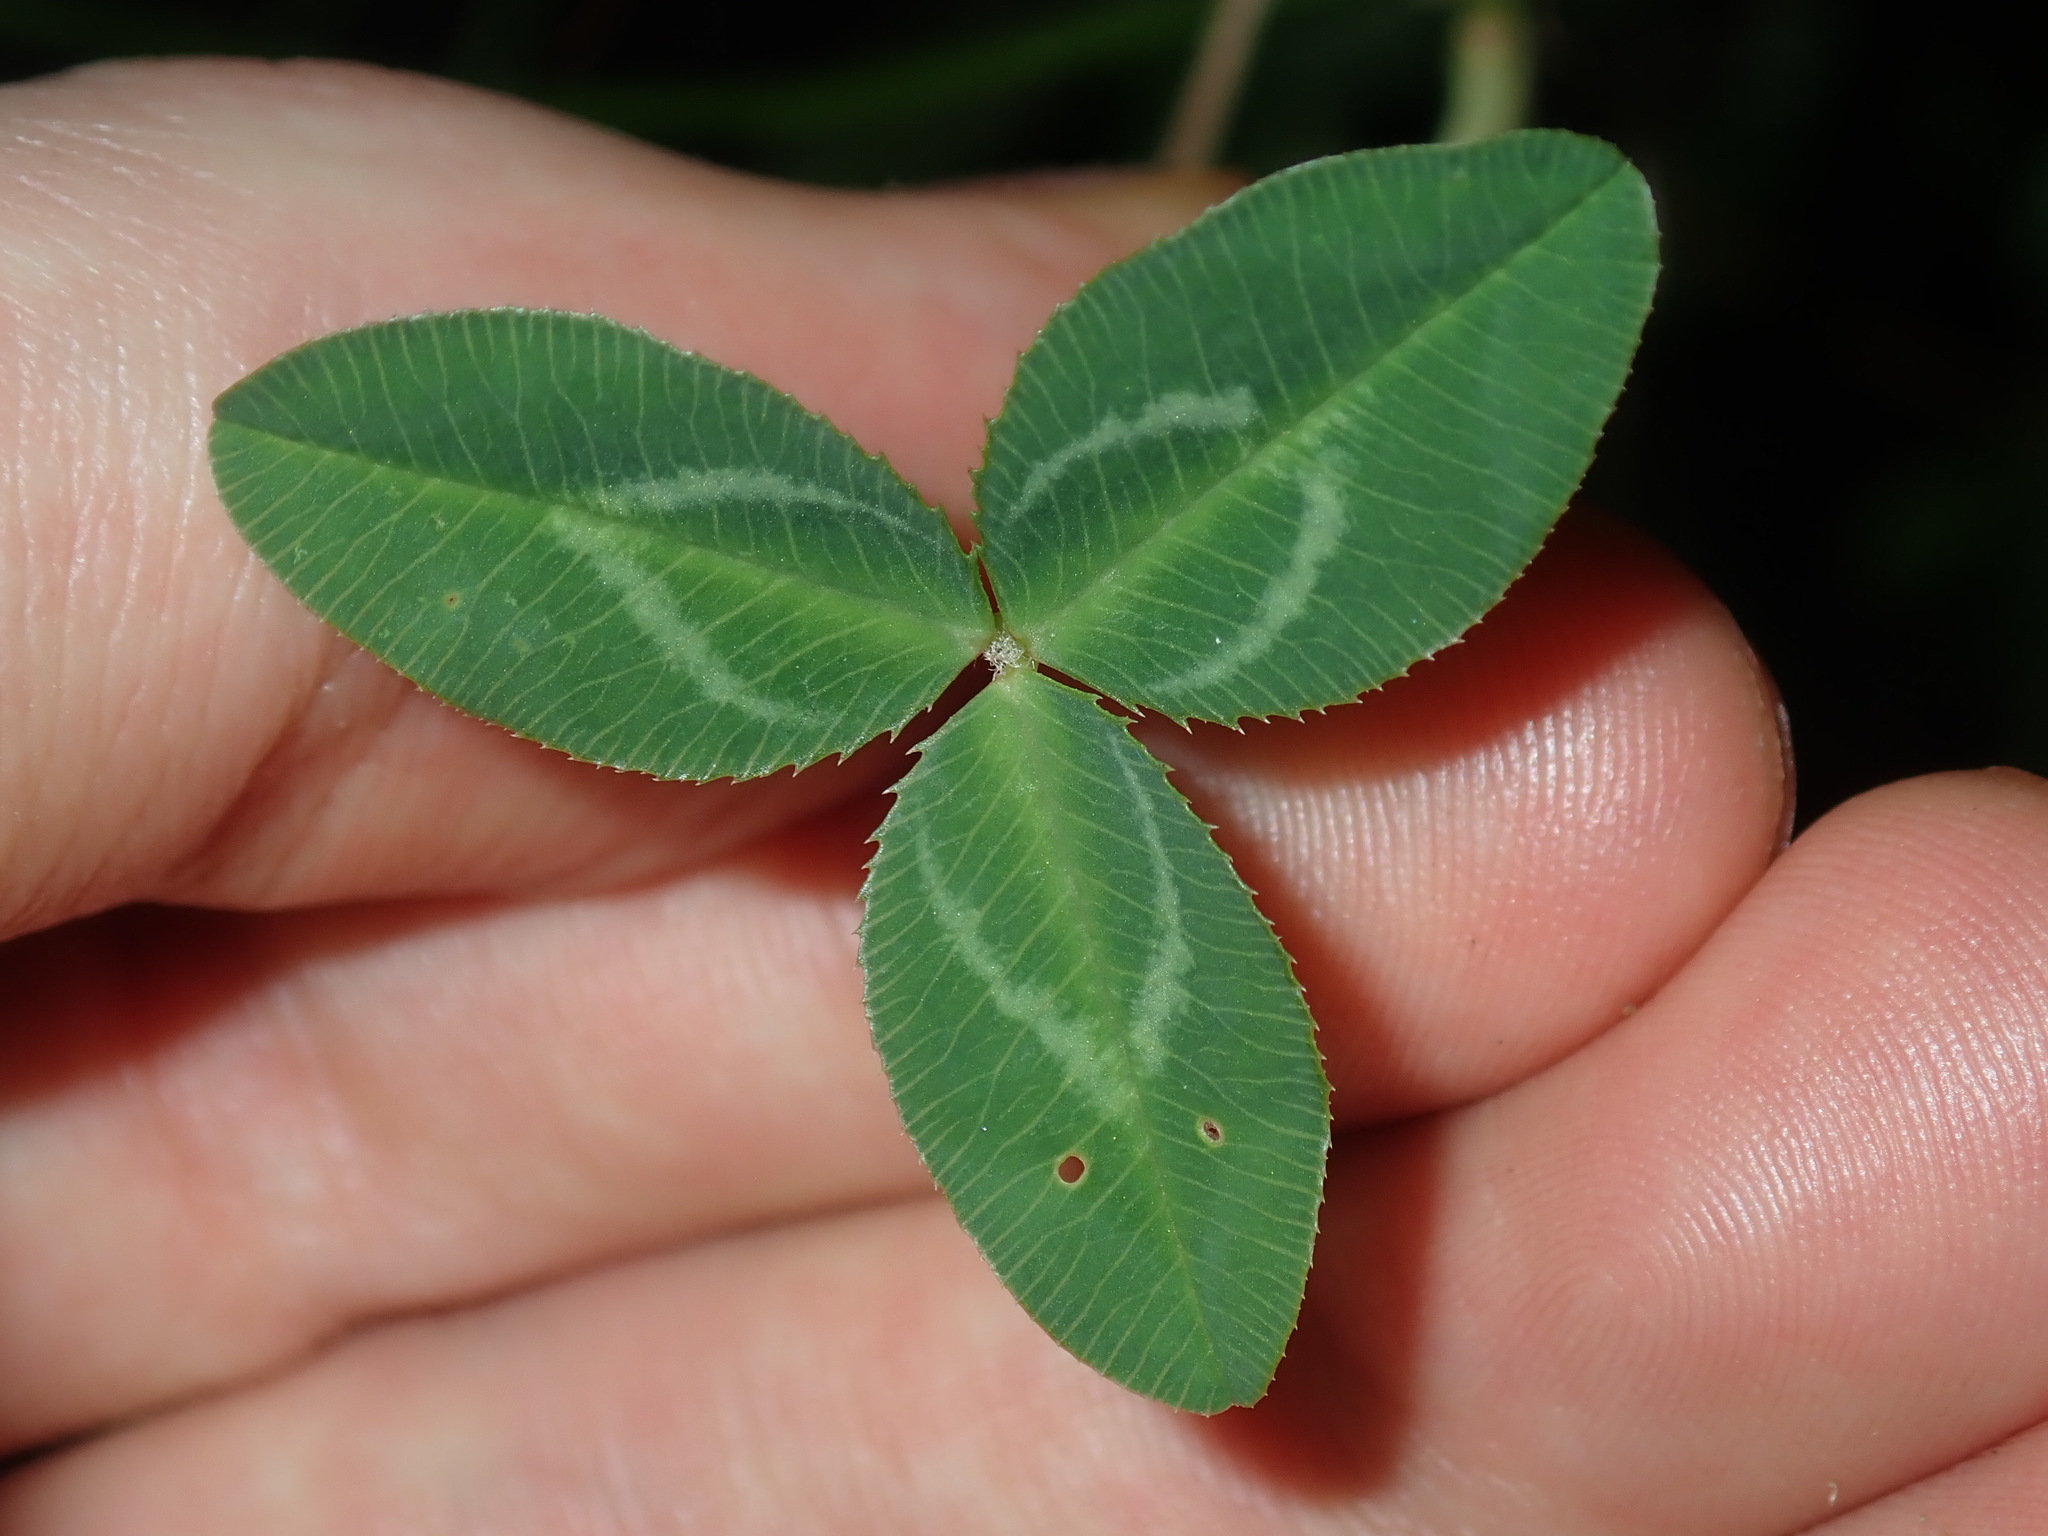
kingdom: Plantae
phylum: Tracheophyta
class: Magnoliopsida
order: Fabales
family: Fabaceae
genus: Trifolium
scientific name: Trifolium repens
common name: White clover
